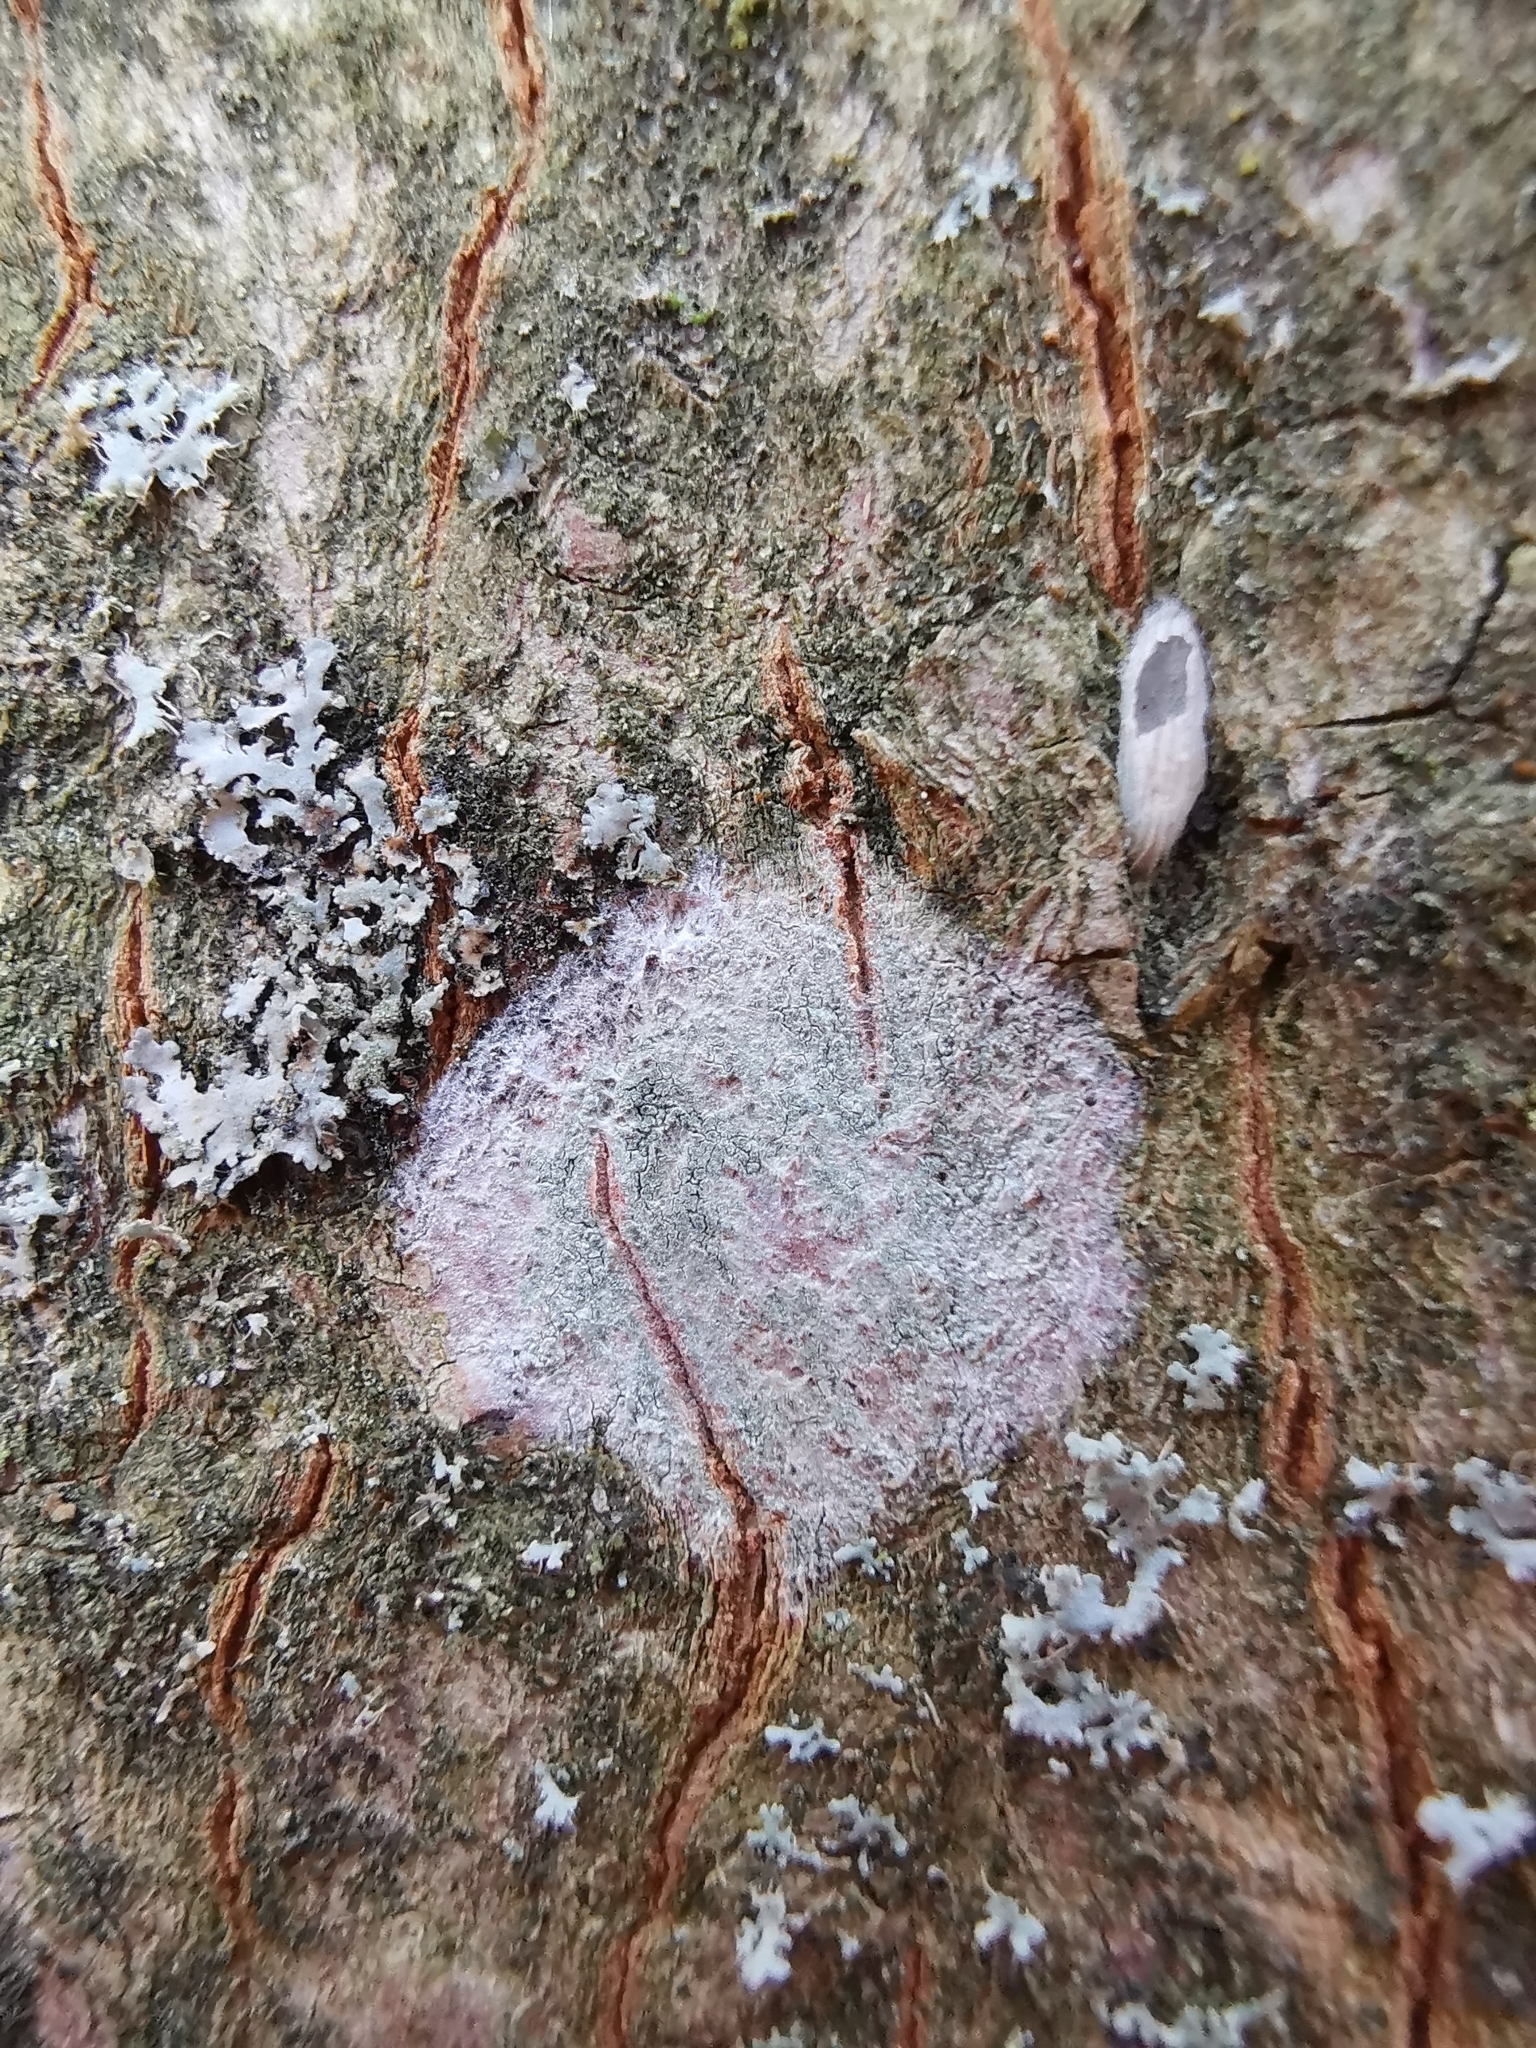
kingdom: Fungi
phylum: Ascomycota
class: Lecanoromycetes
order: Ostropales
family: Phlyctidaceae
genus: Phlyctis
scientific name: Phlyctis argena
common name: Whitewash lichen
